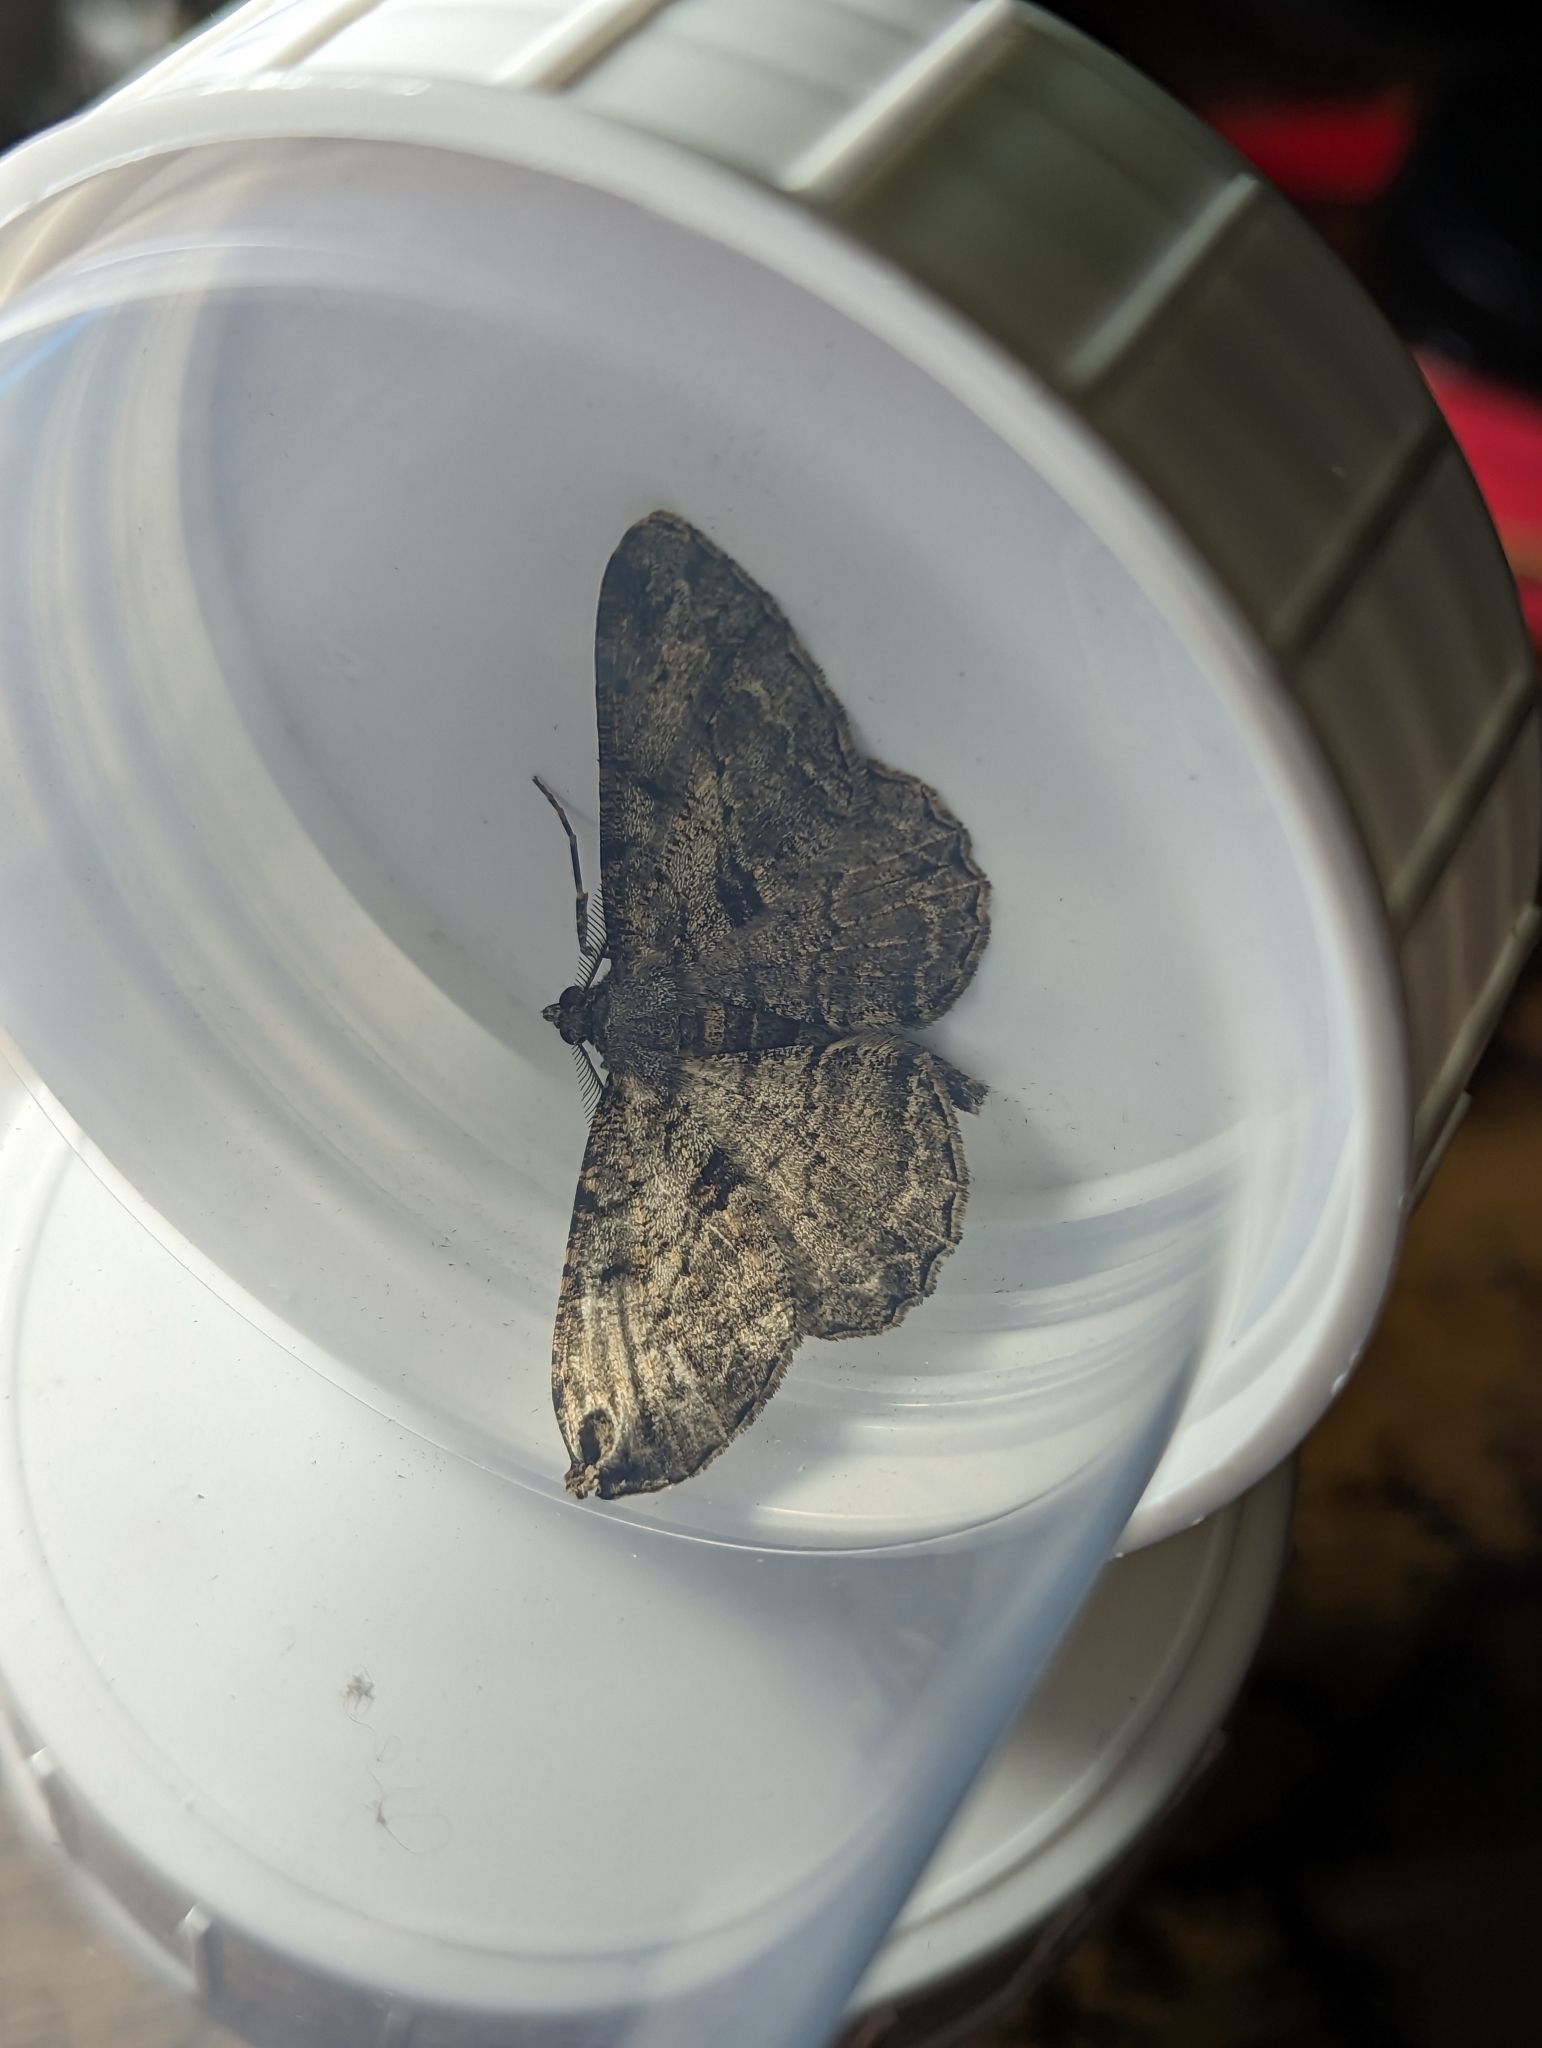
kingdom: Animalia
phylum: Arthropoda
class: Insecta
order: Lepidoptera
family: Geometridae
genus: Peribatodes
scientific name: Peribatodes rhomboidaria
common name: Willow beauty
